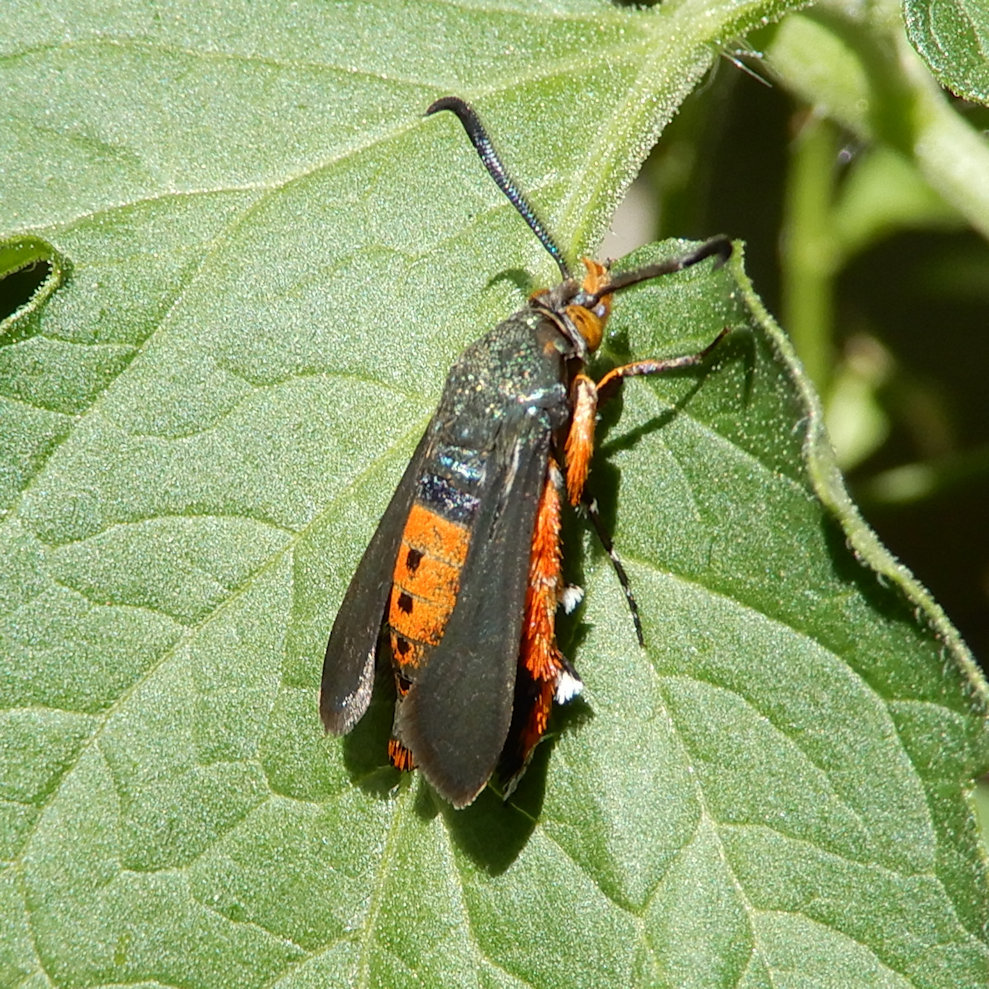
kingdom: Animalia
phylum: Arthropoda
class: Insecta
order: Lepidoptera
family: Sesiidae
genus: Eichlinia
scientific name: Eichlinia cucurbitae
